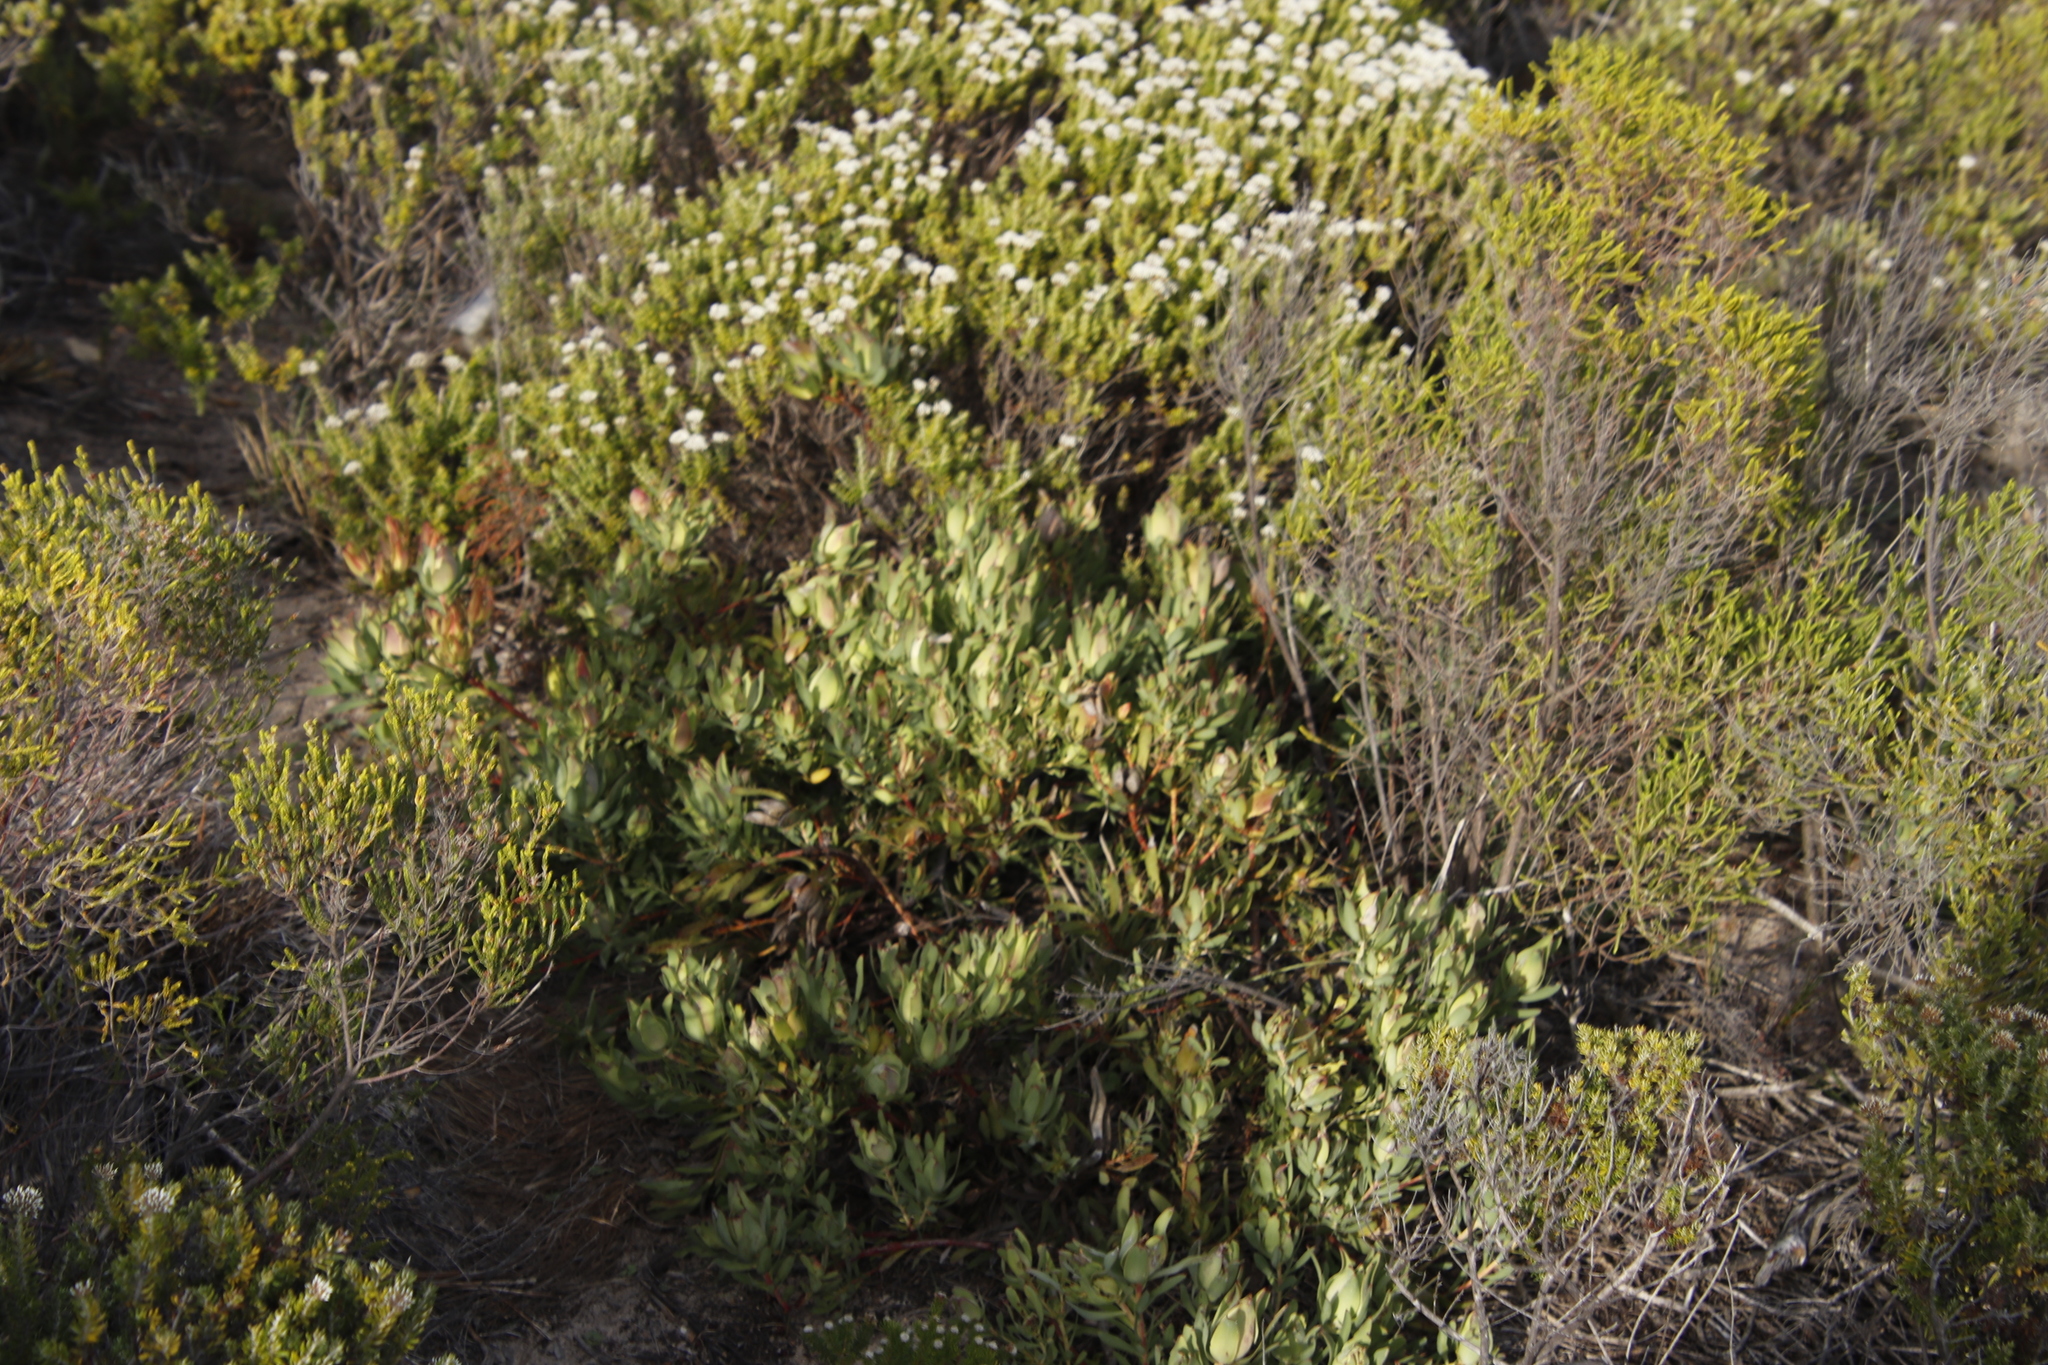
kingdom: Plantae
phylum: Tracheophyta
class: Magnoliopsida
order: Proteales
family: Proteaceae
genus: Leucadendron
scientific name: Leucadendron salignum
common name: Common sunshine conebush
